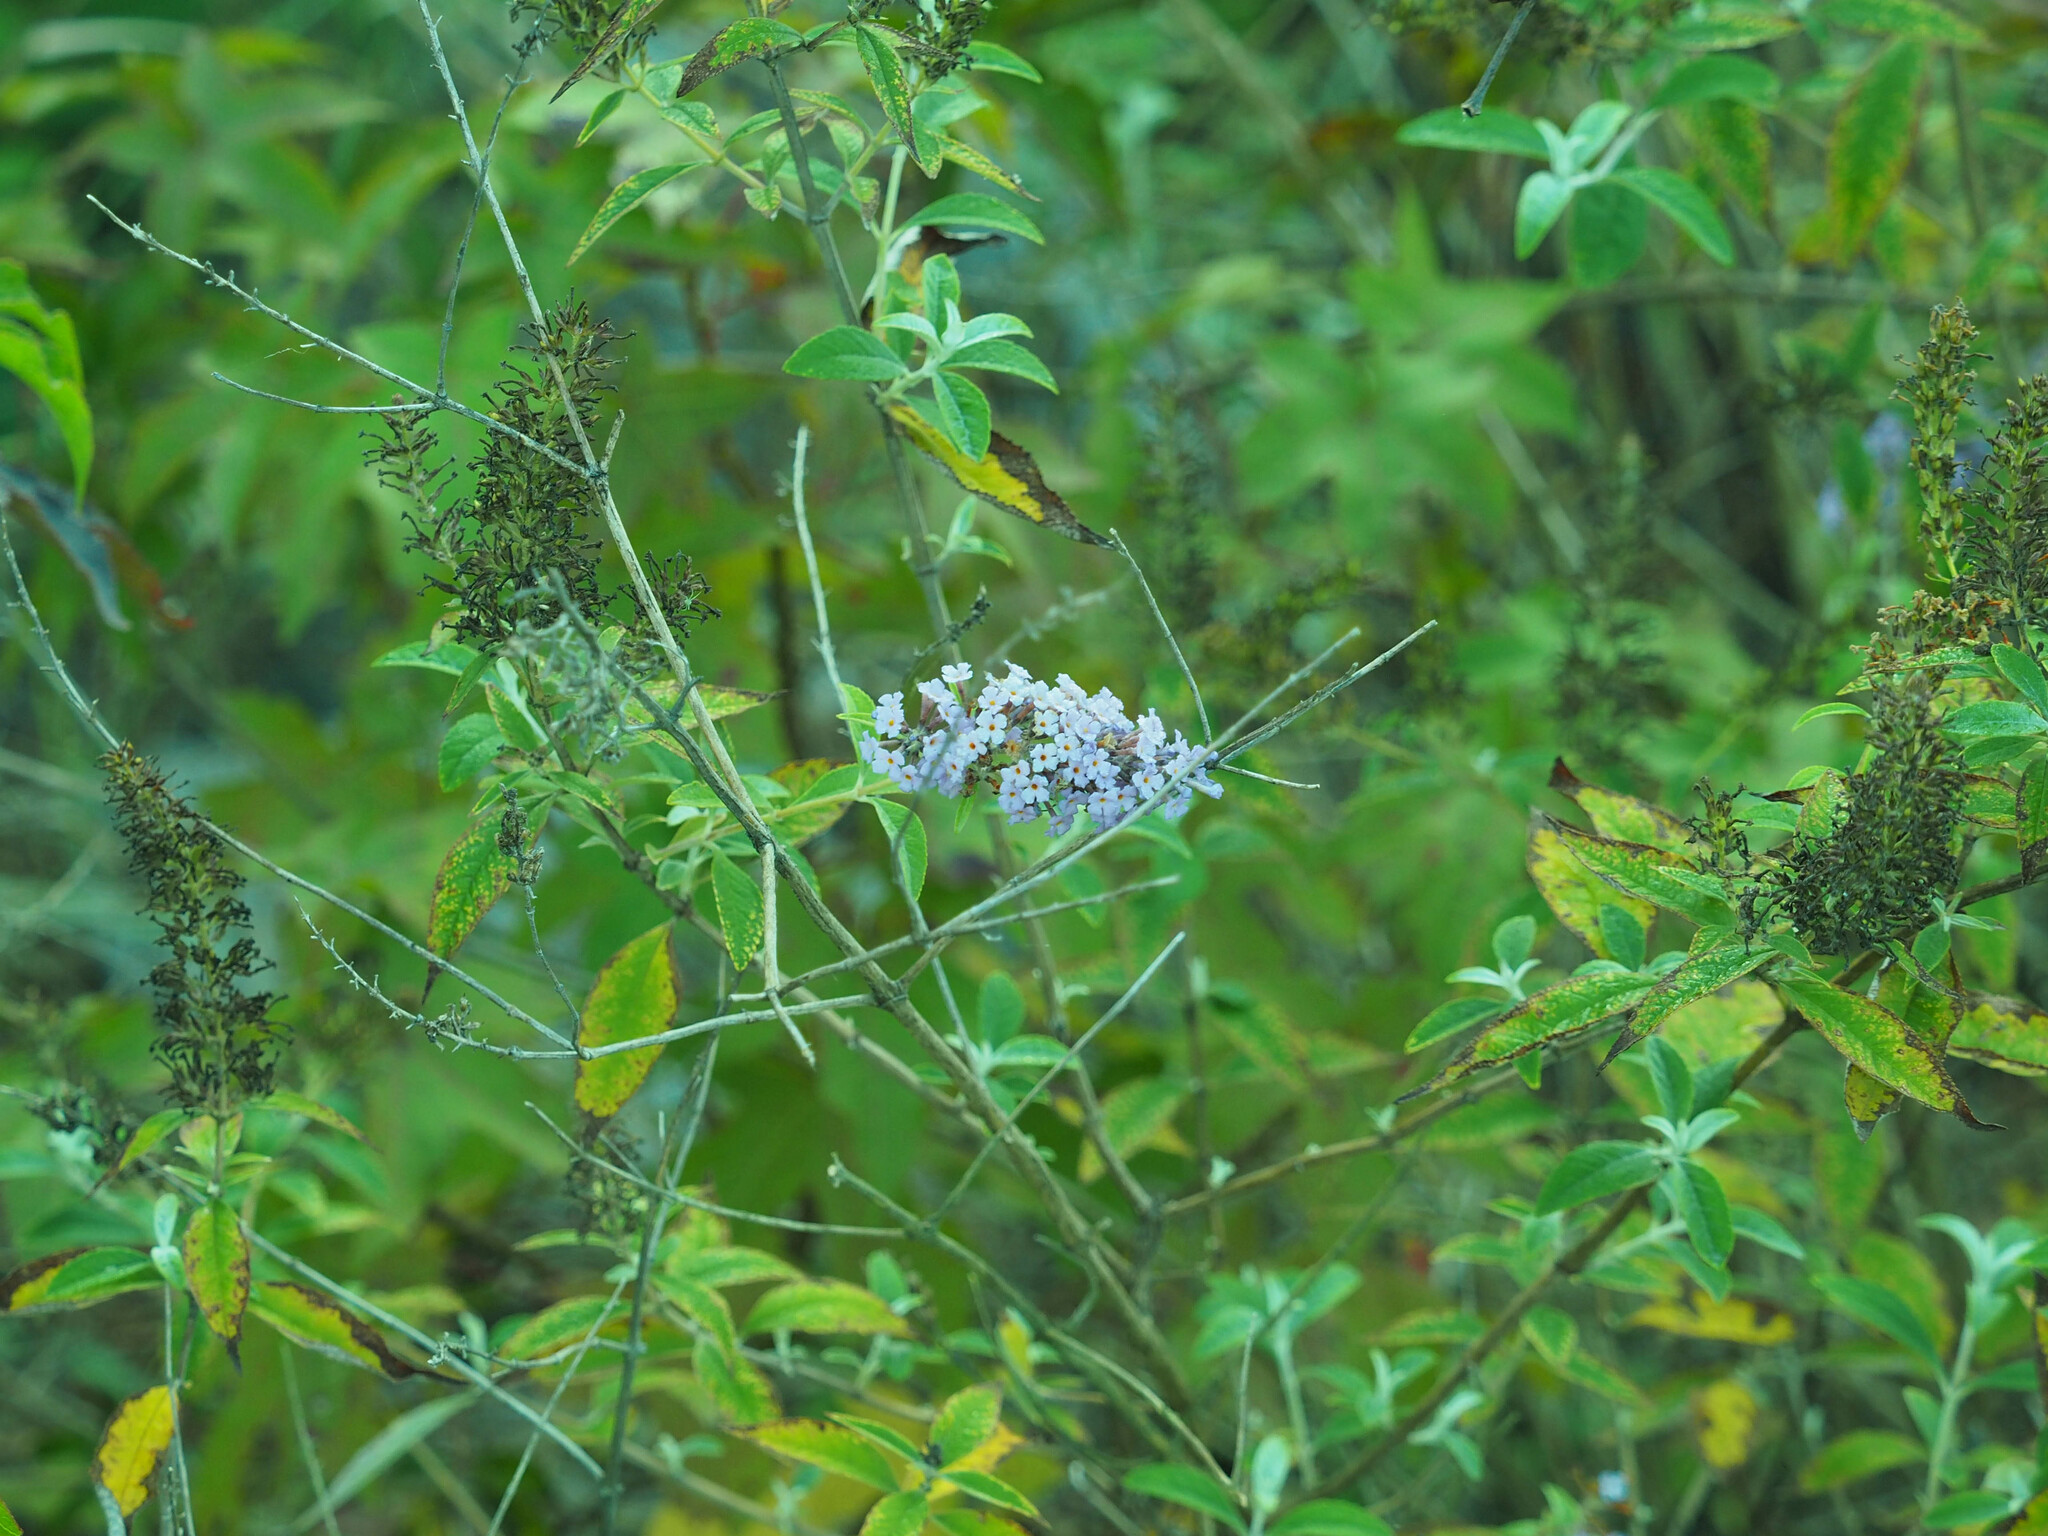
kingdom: Plantae
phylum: Tracheophyta
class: Magnoliopsida
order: Lamiales
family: Scrophulariaceae
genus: Buddleja
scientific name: Buddleja davidii
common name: Butterfly-bush
